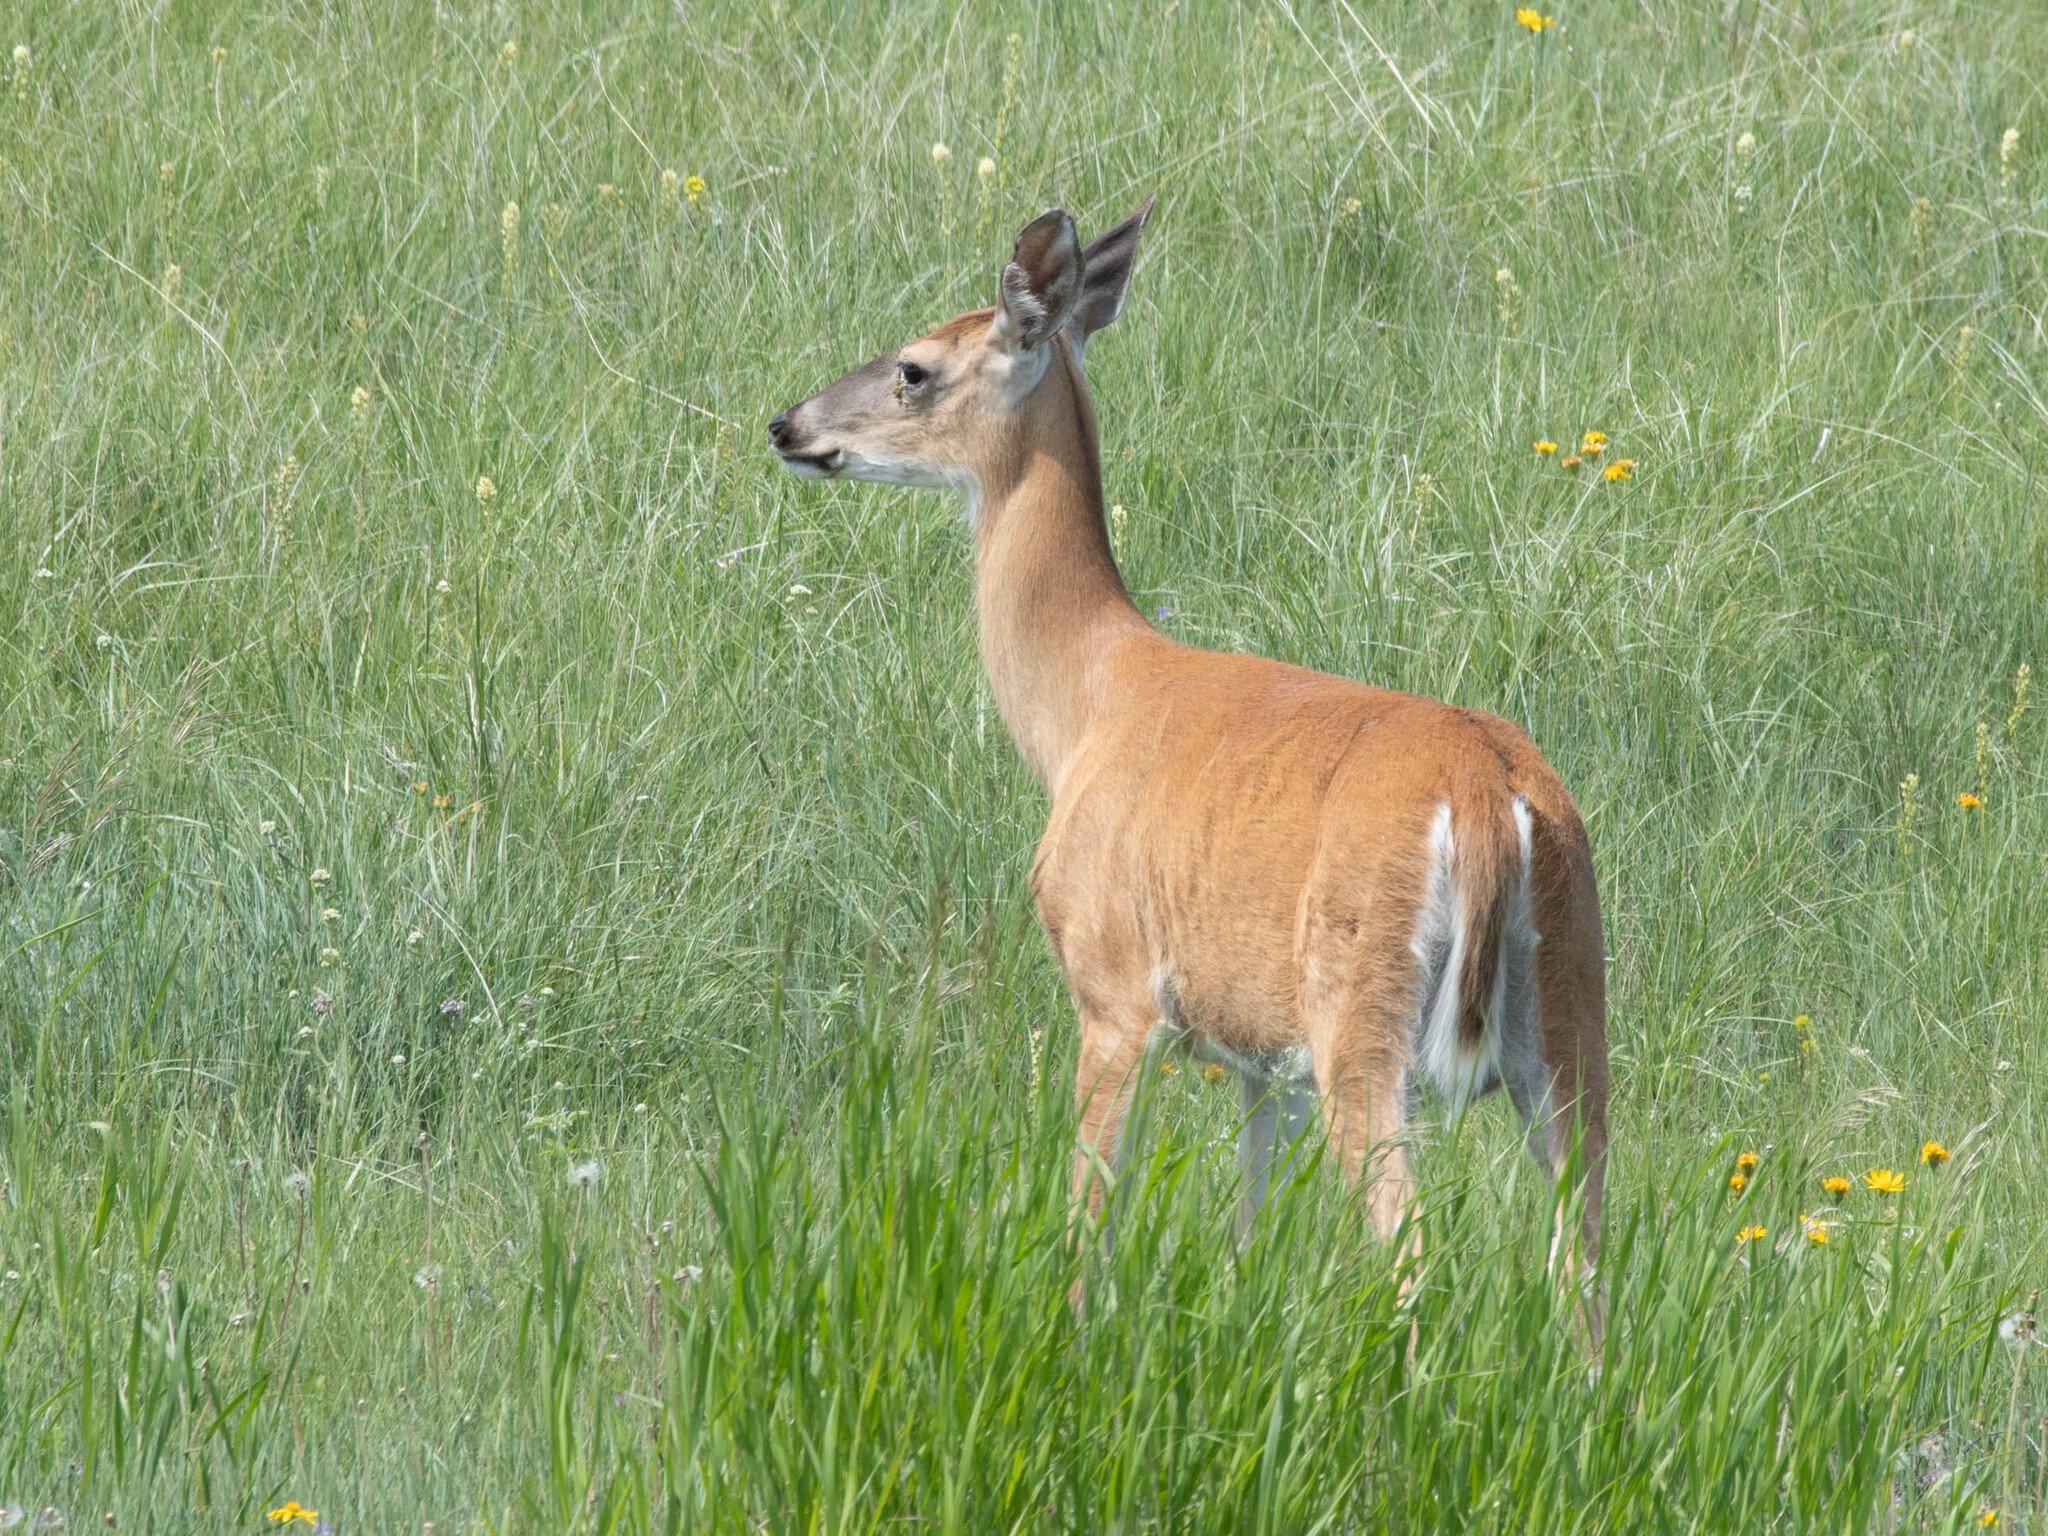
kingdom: Animalia
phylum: Chordata
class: Mammalia
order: Artiodactyla
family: Cervidae
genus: Odocoileus
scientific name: Odocoileus virginianus
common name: White-tailed deer
